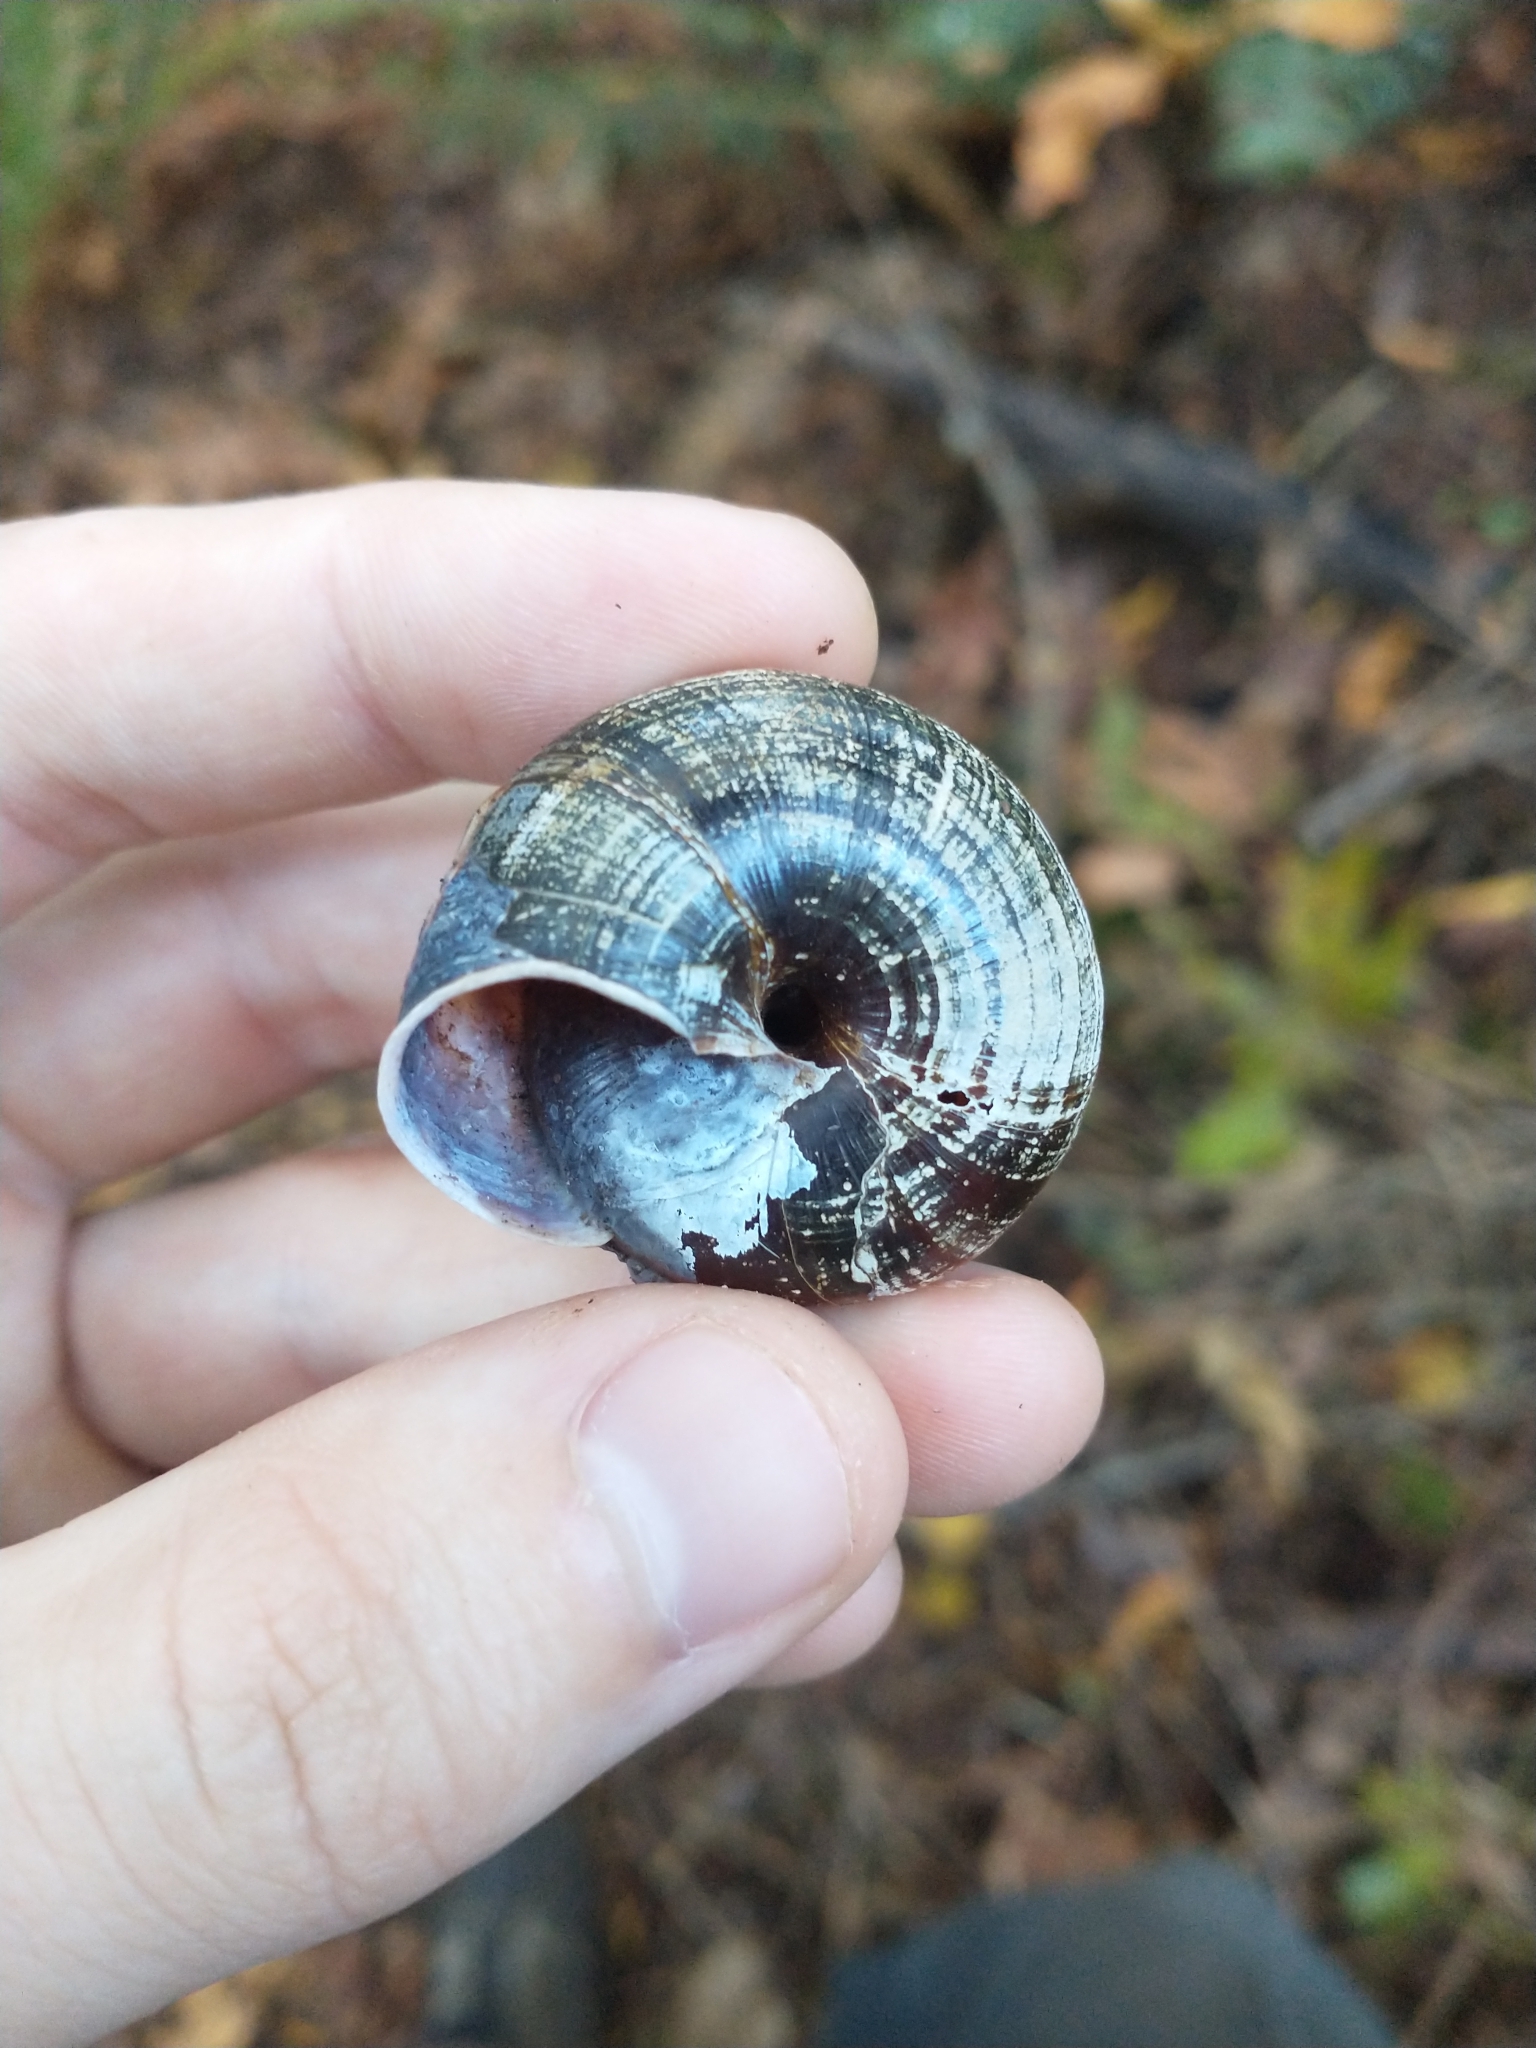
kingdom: Animalia
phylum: Mollusca
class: Gastropoda
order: Stylommatophora
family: Xanthonychidae
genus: Monadenia
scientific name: Monadenia fidelis
